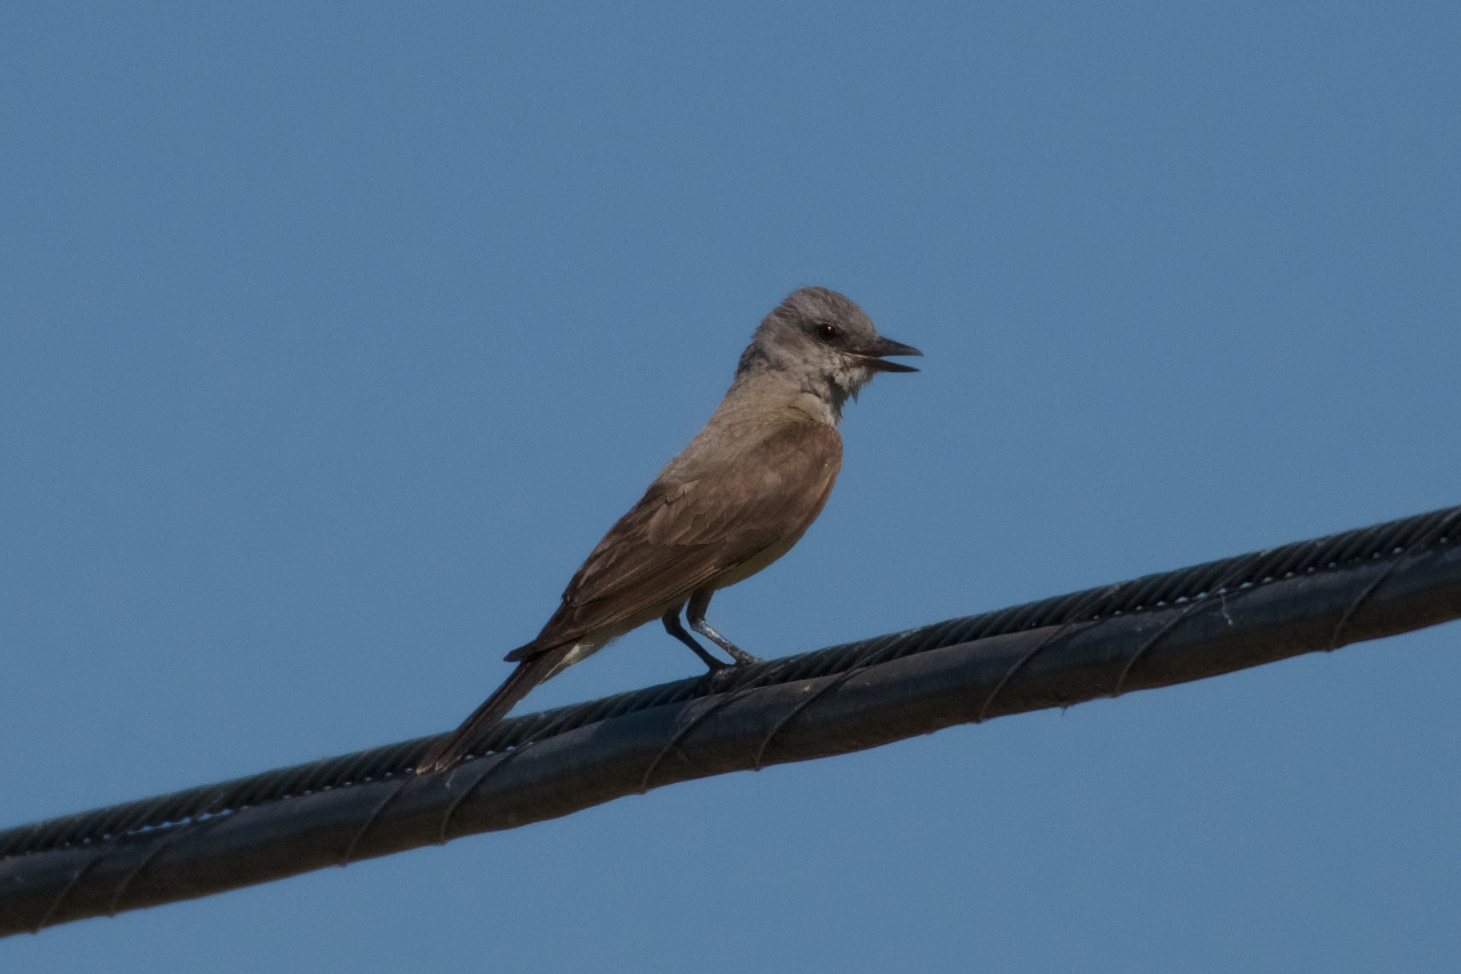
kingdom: Animalia
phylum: Chordata
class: Aves
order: Passeriformes
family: Tyrannidae
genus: Tyrannus
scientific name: Tyrannus verticalis
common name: Western kingbird
